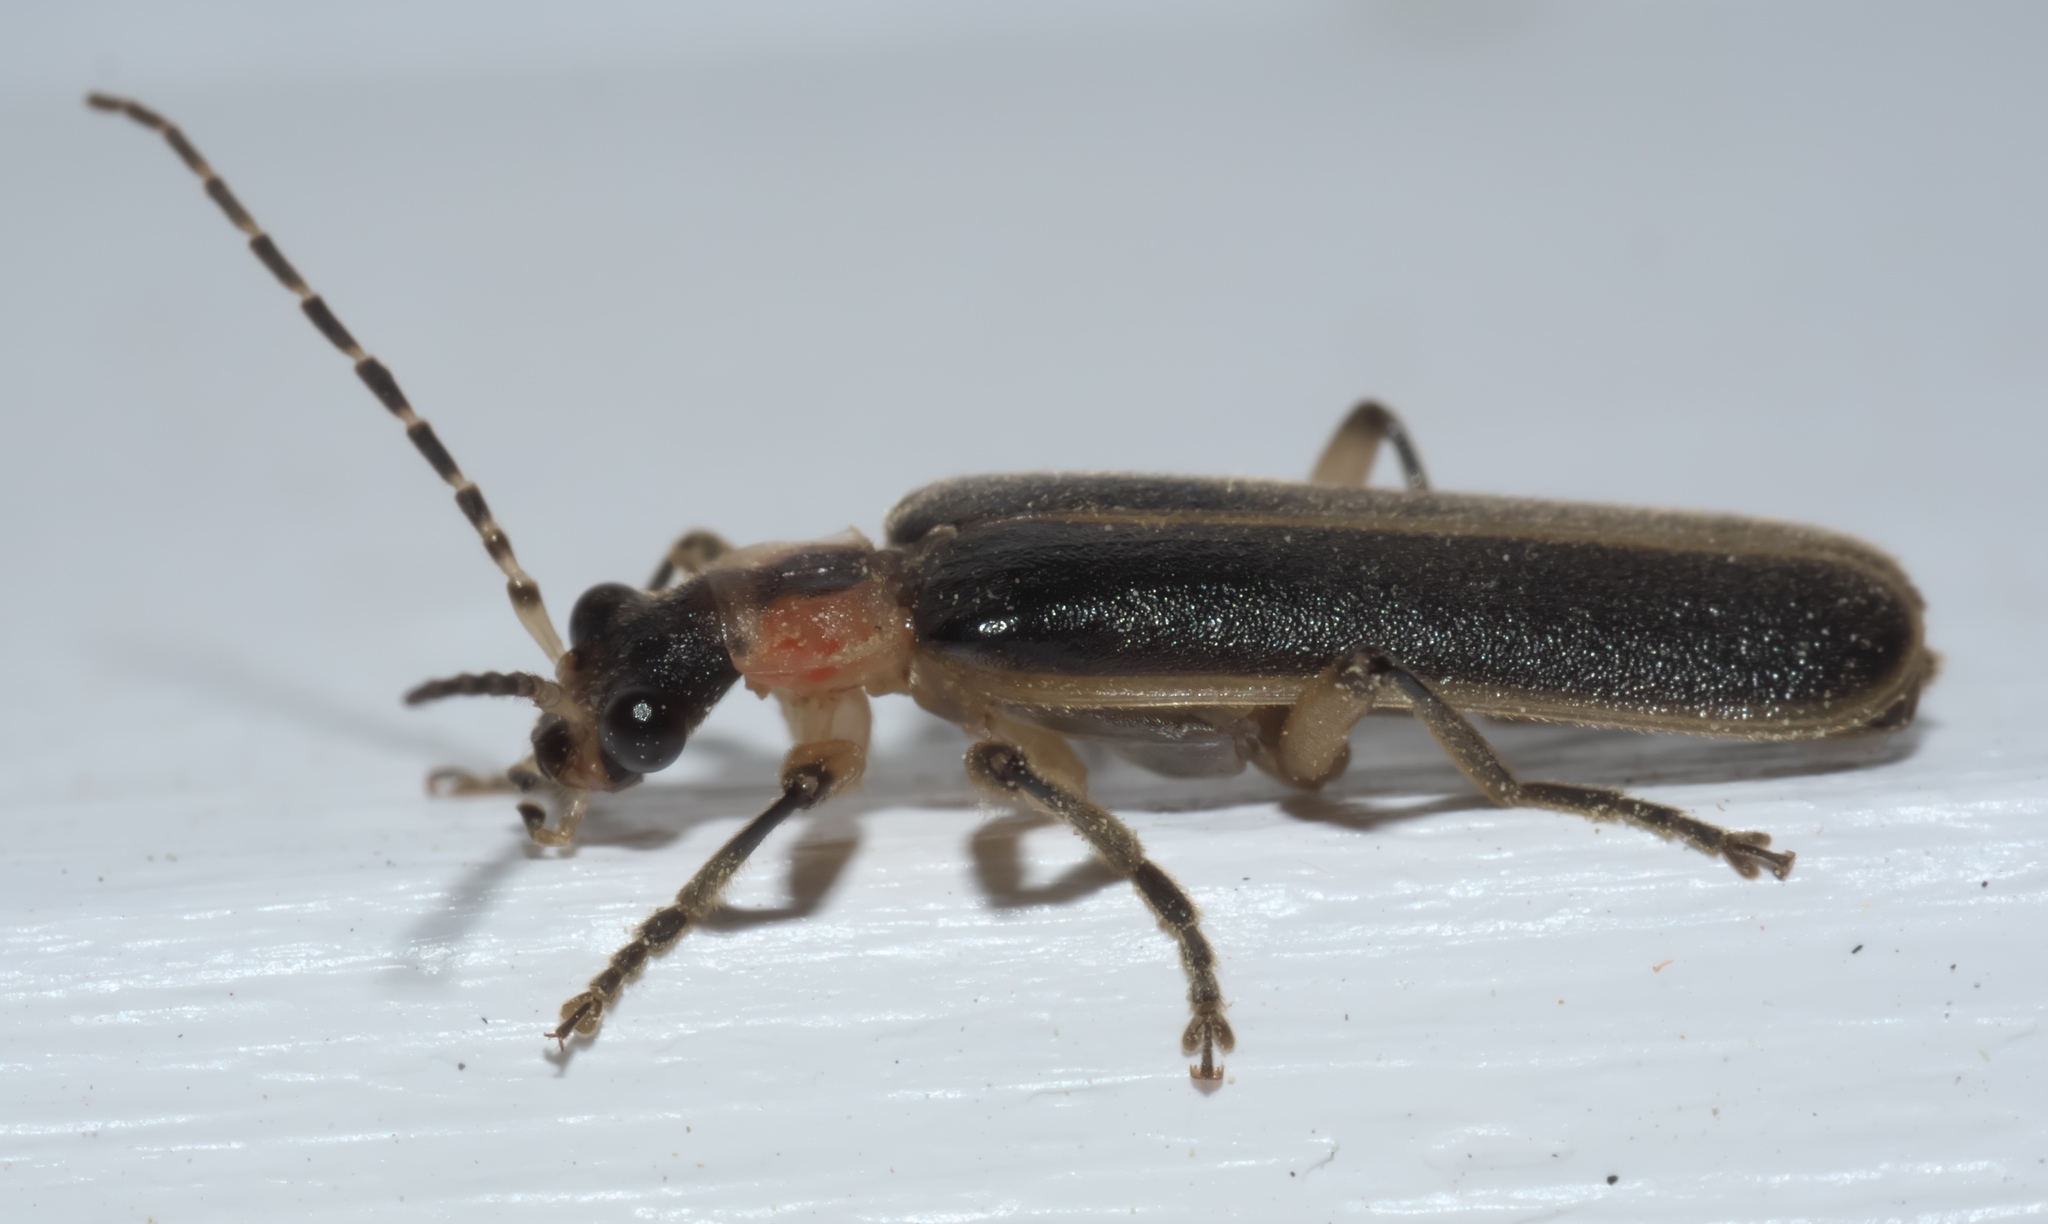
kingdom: Animalia
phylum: Arthropoda
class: Insecta
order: Coleoptera
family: Cantharidae
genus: Podabrus
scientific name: Podabrus basilaris
